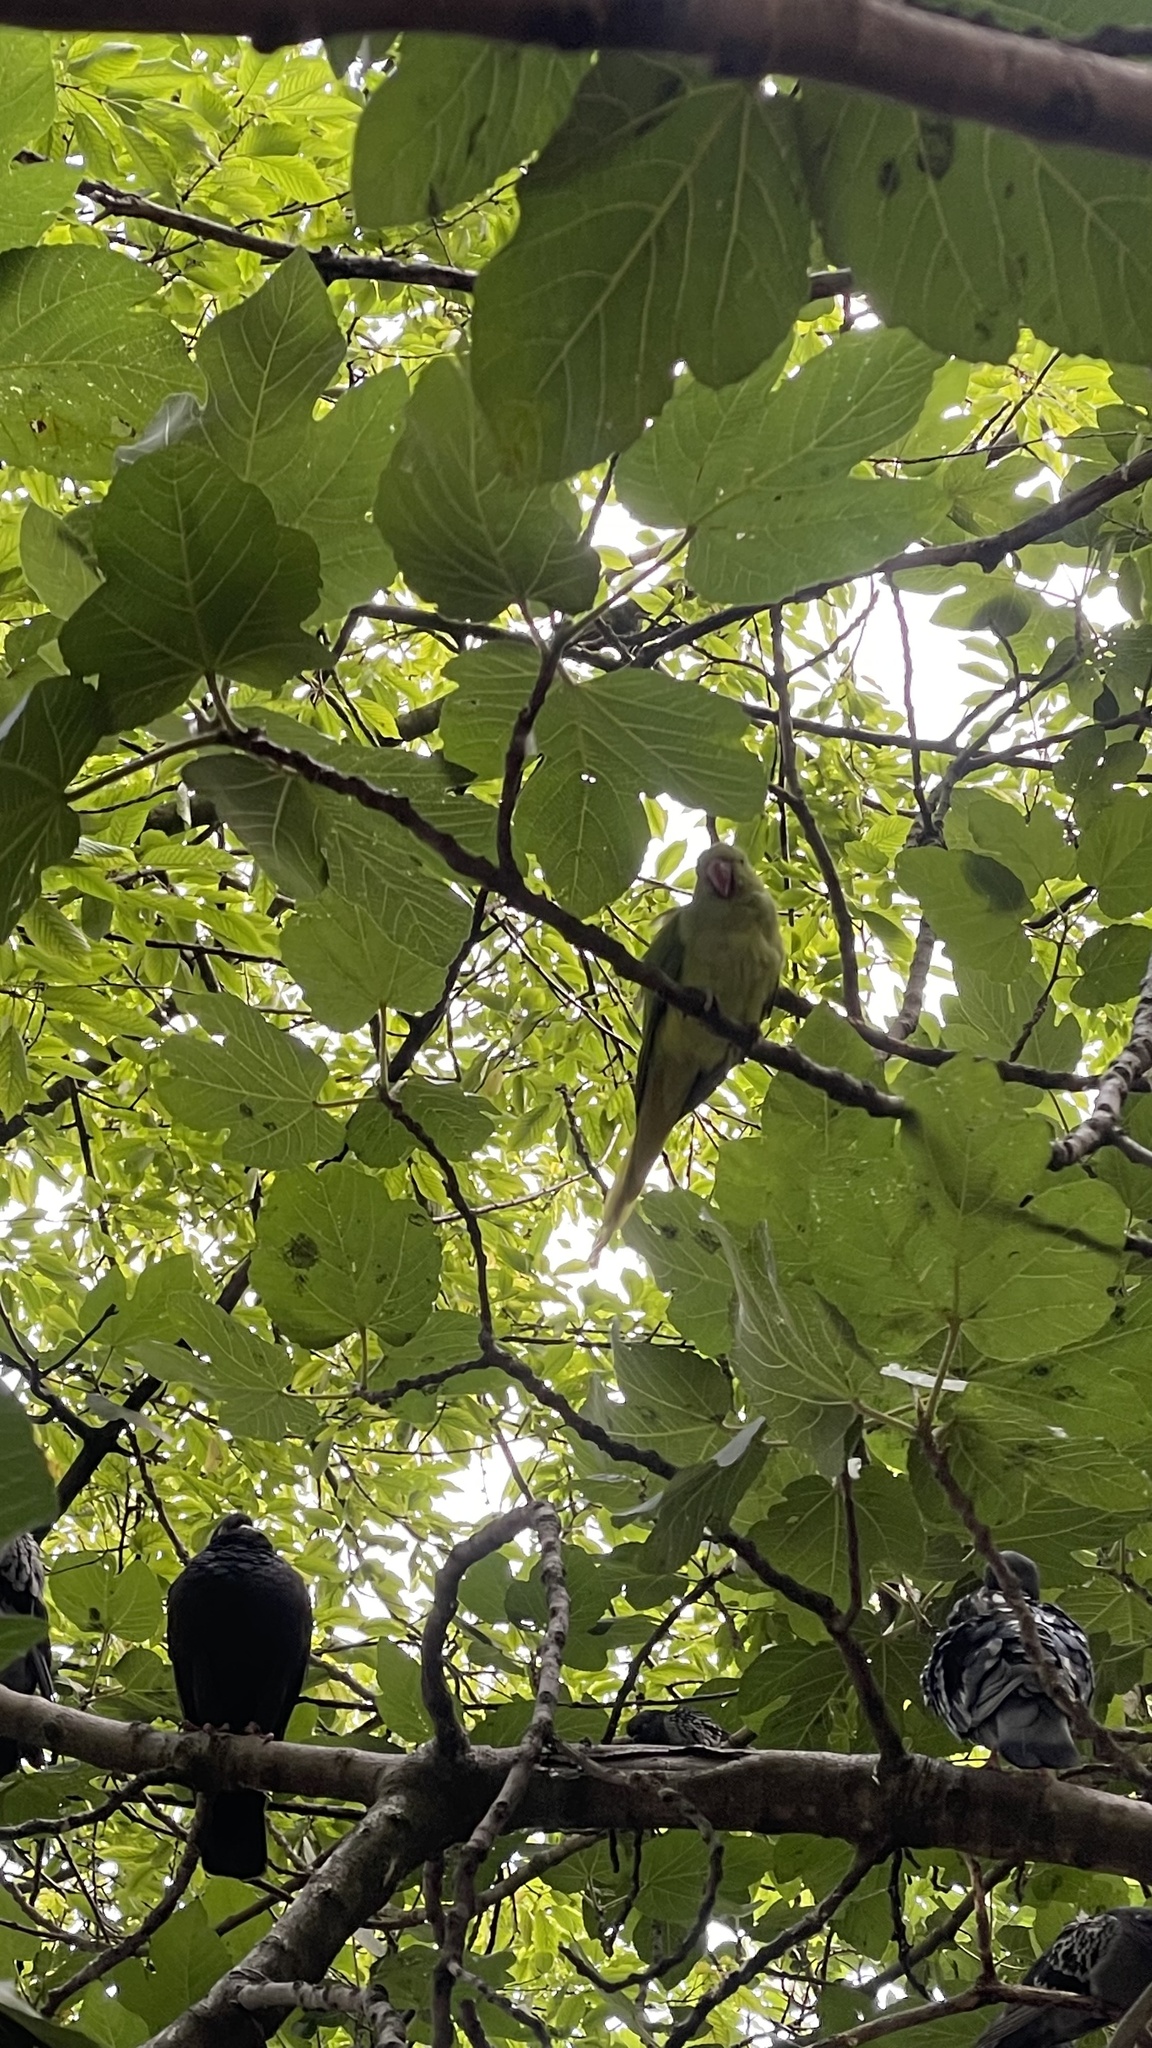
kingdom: Animalia
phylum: Chordata
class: Aves
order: Psittaciformes
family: Psittacidae
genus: Psittacula
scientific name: Psittacula krameri
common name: Rose-ringed parakeet
